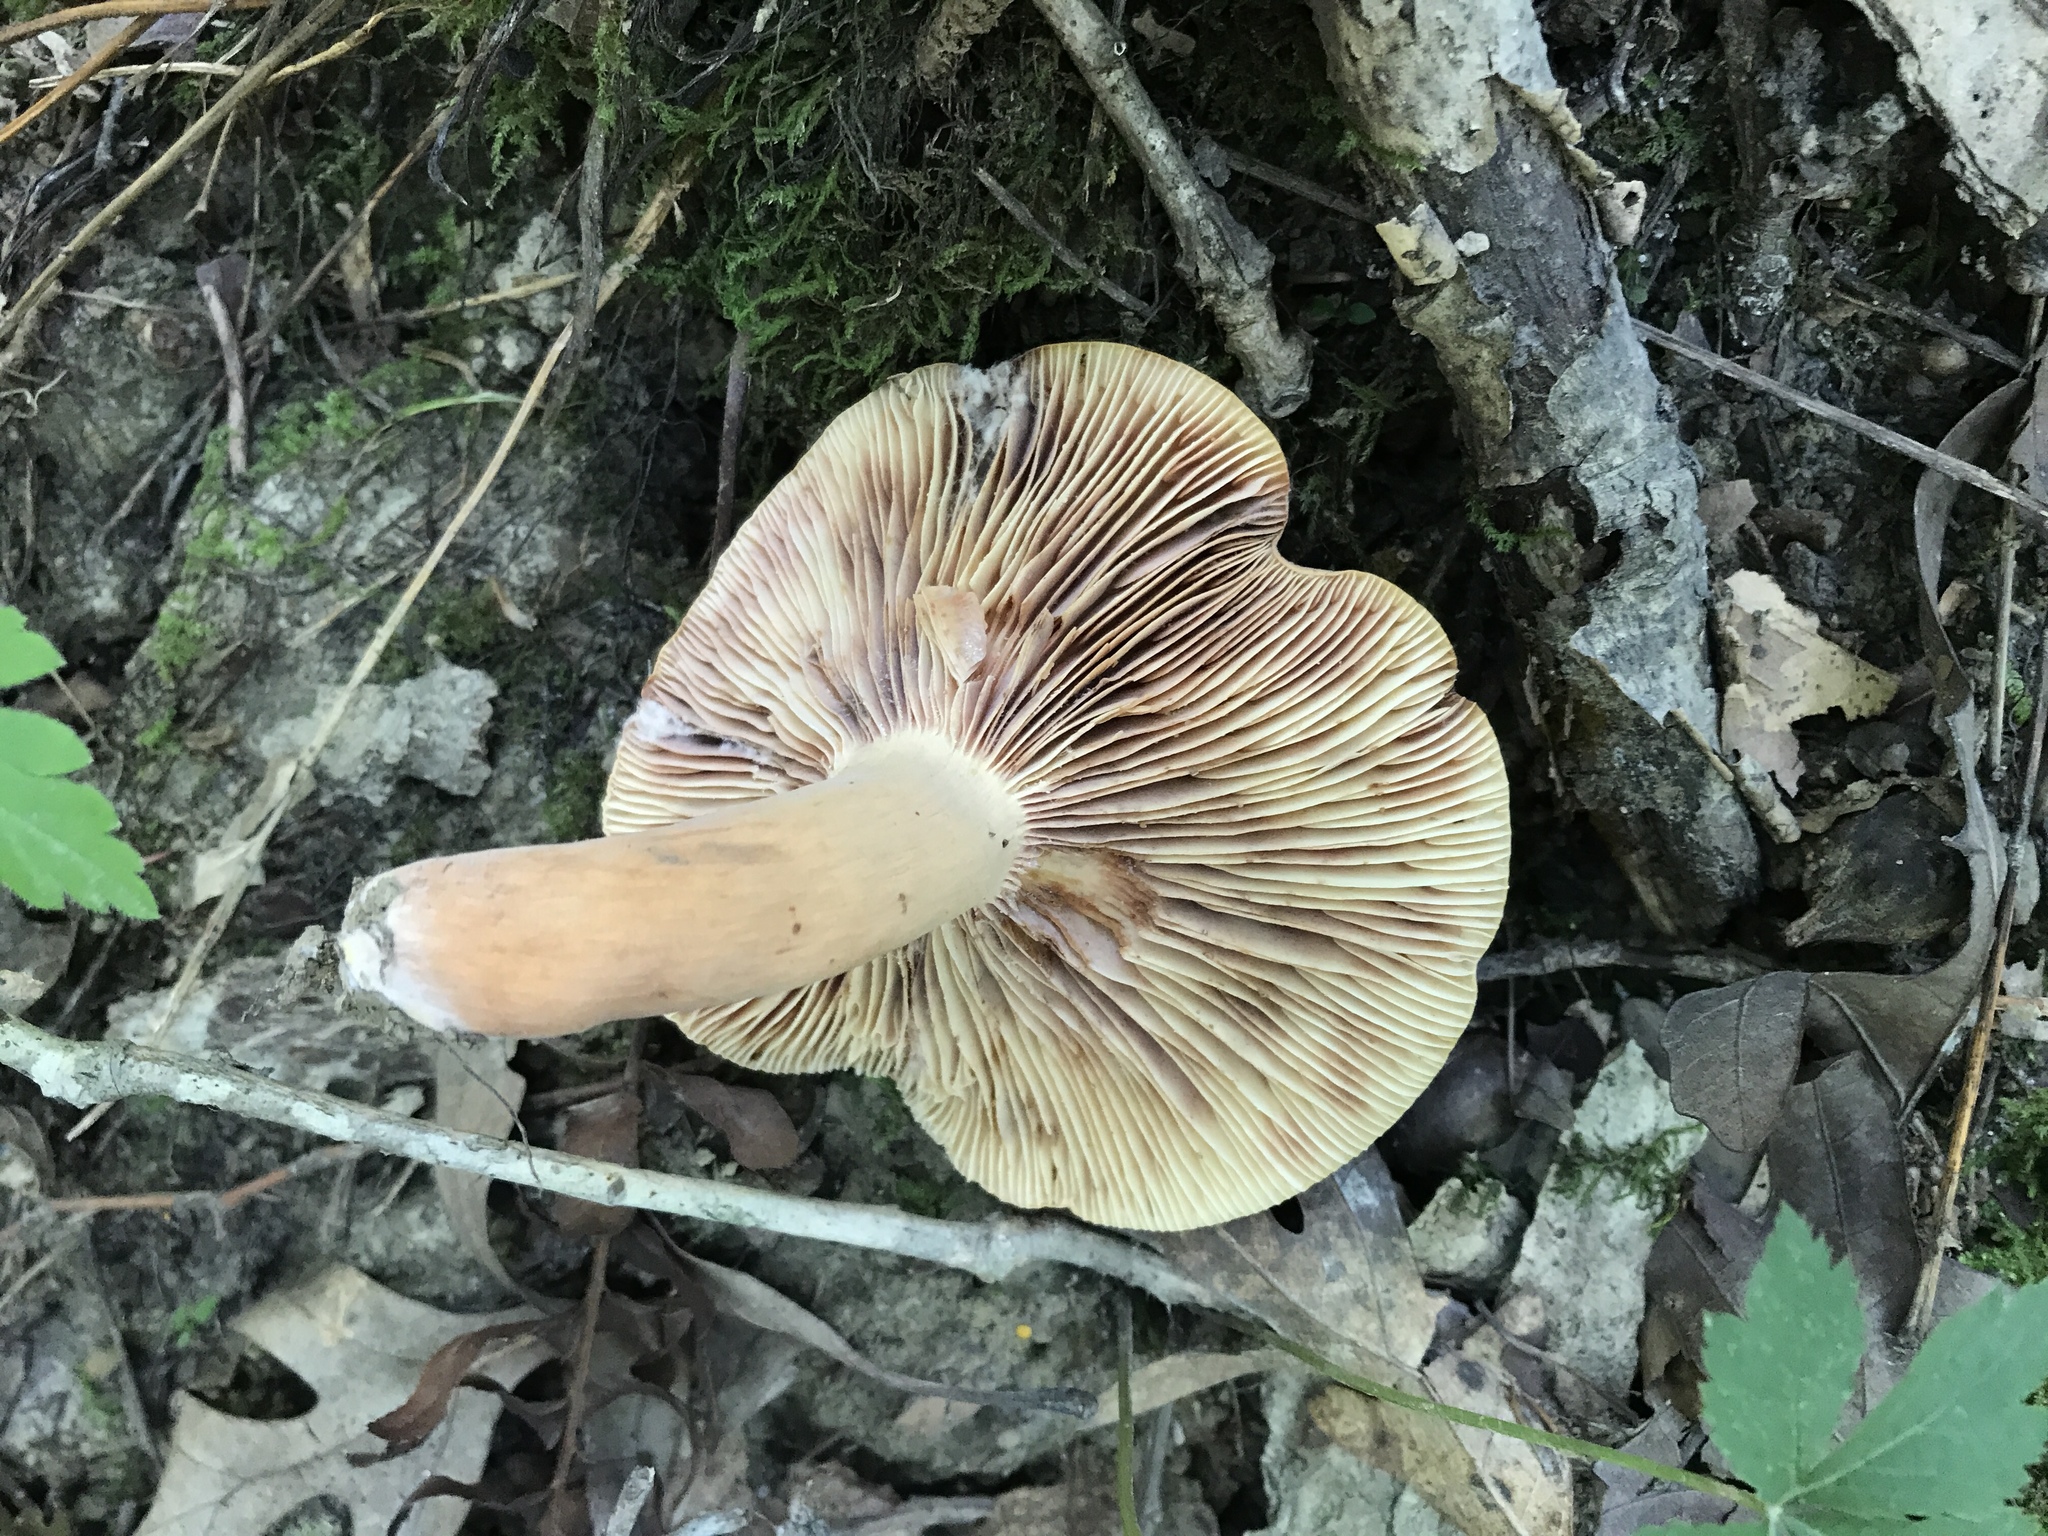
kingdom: Fungi
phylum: Basidiomycota
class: Agaricomycetes
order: Russulales
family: Russulaceae
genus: Lactifluus
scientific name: Lactifluus volemus
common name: Fishy milkcap
